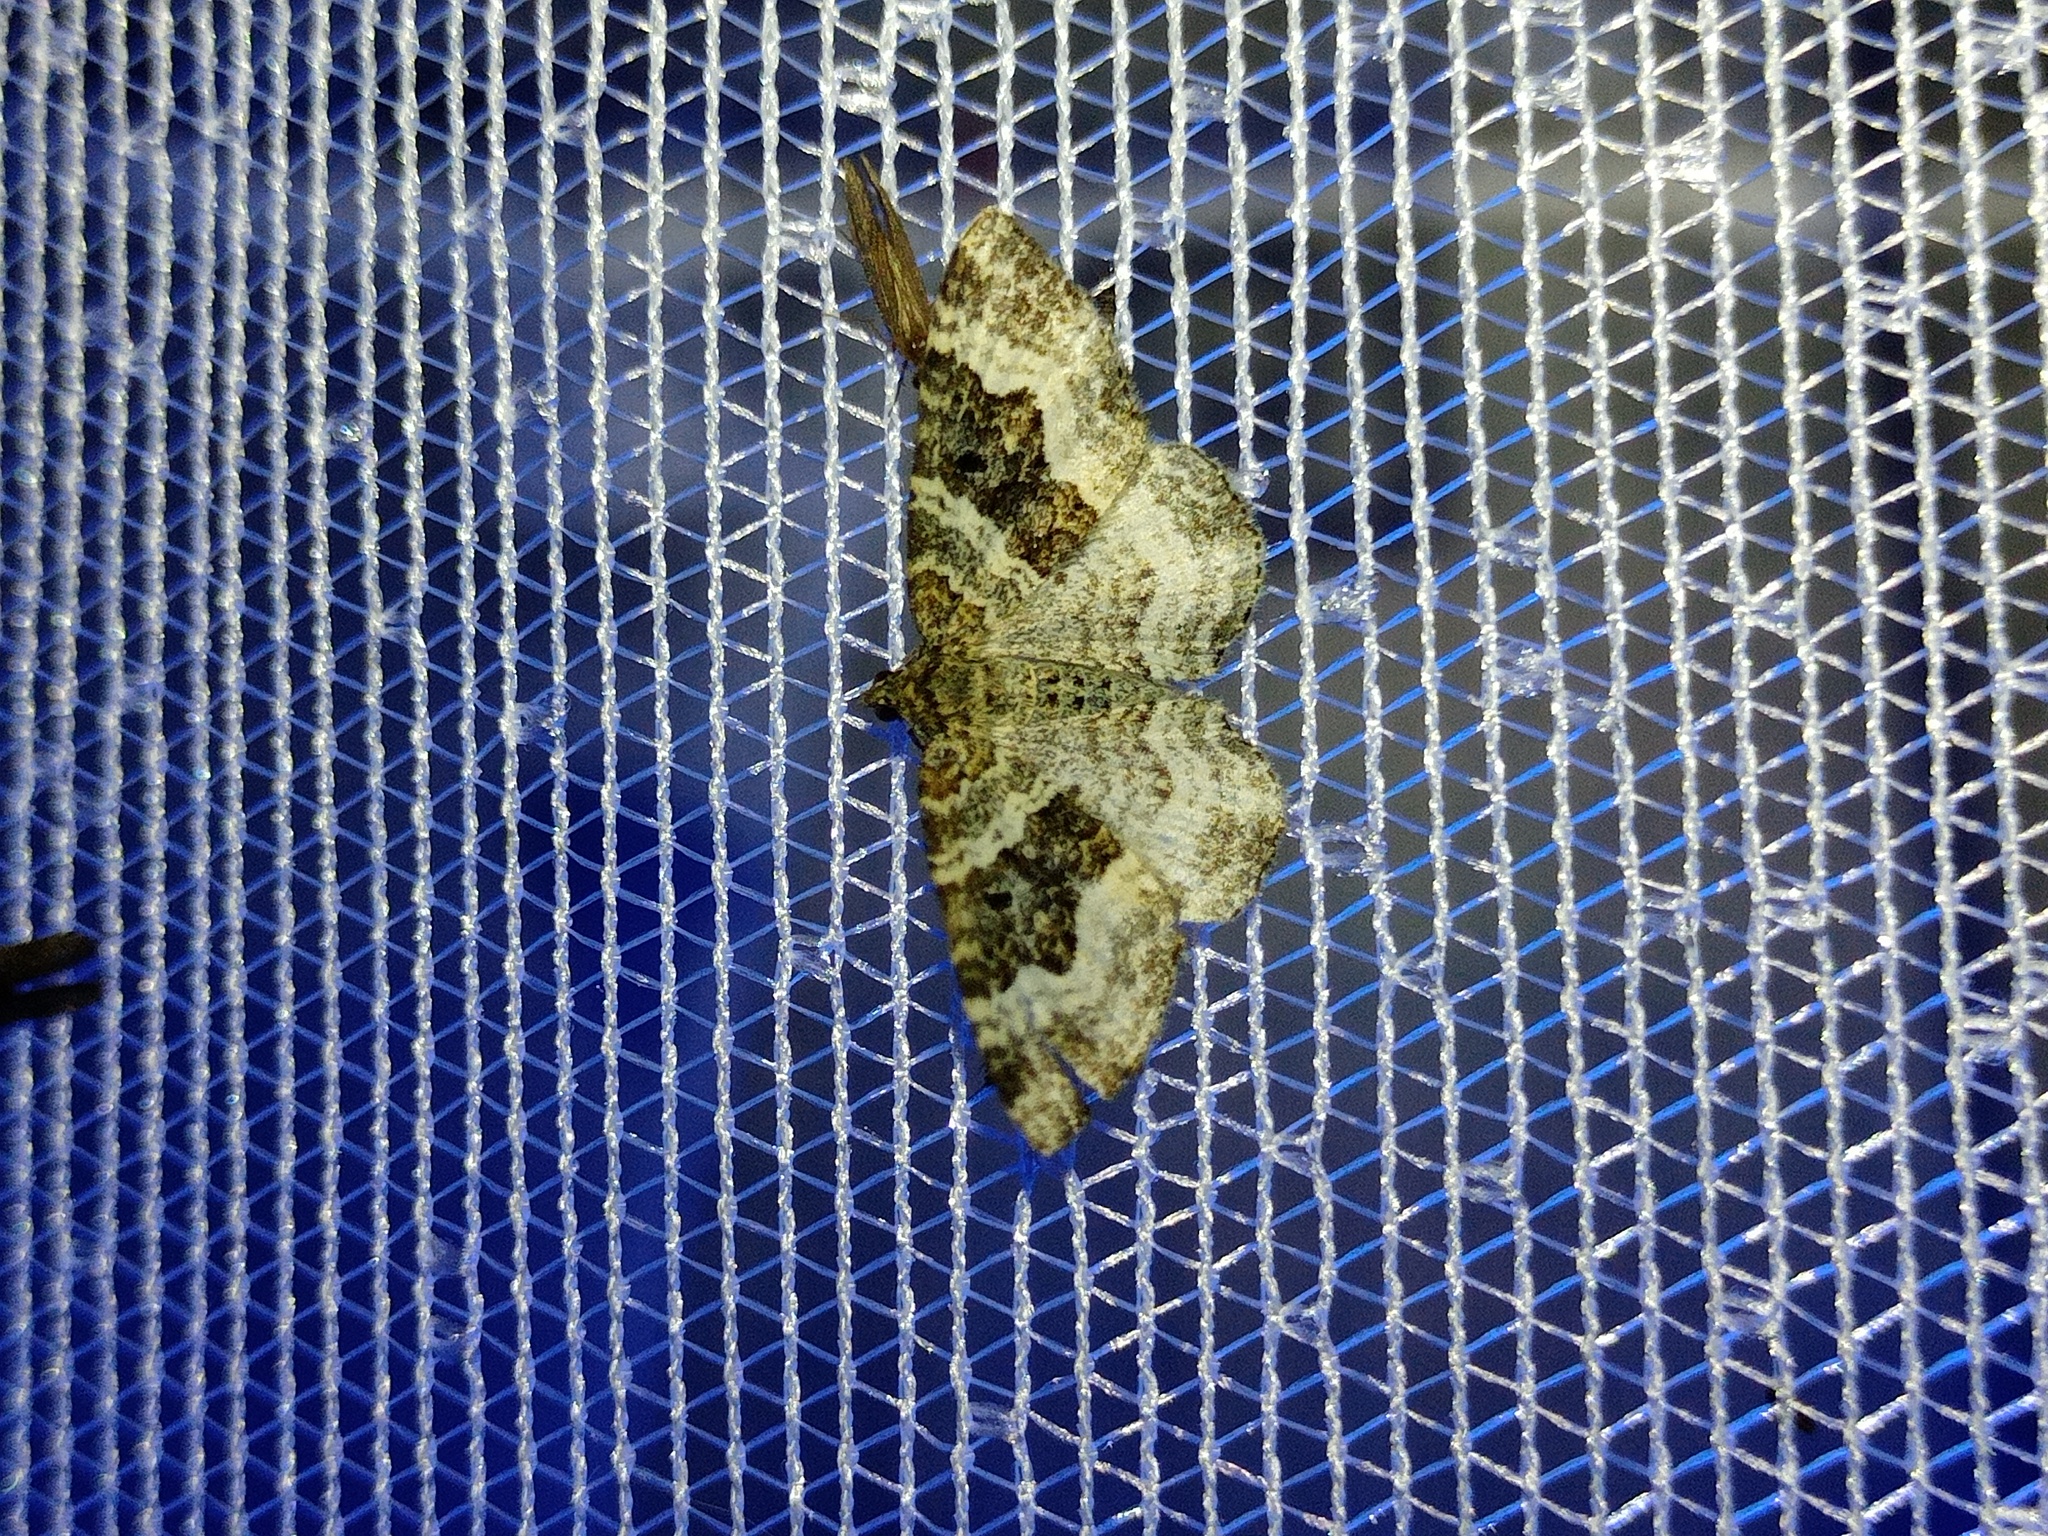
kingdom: Animalia
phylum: Arthropoda
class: Insecta
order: Lepidoptera
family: Geometridae
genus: Epirrhoe
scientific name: Epirrhoe alternata
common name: Common carpet
